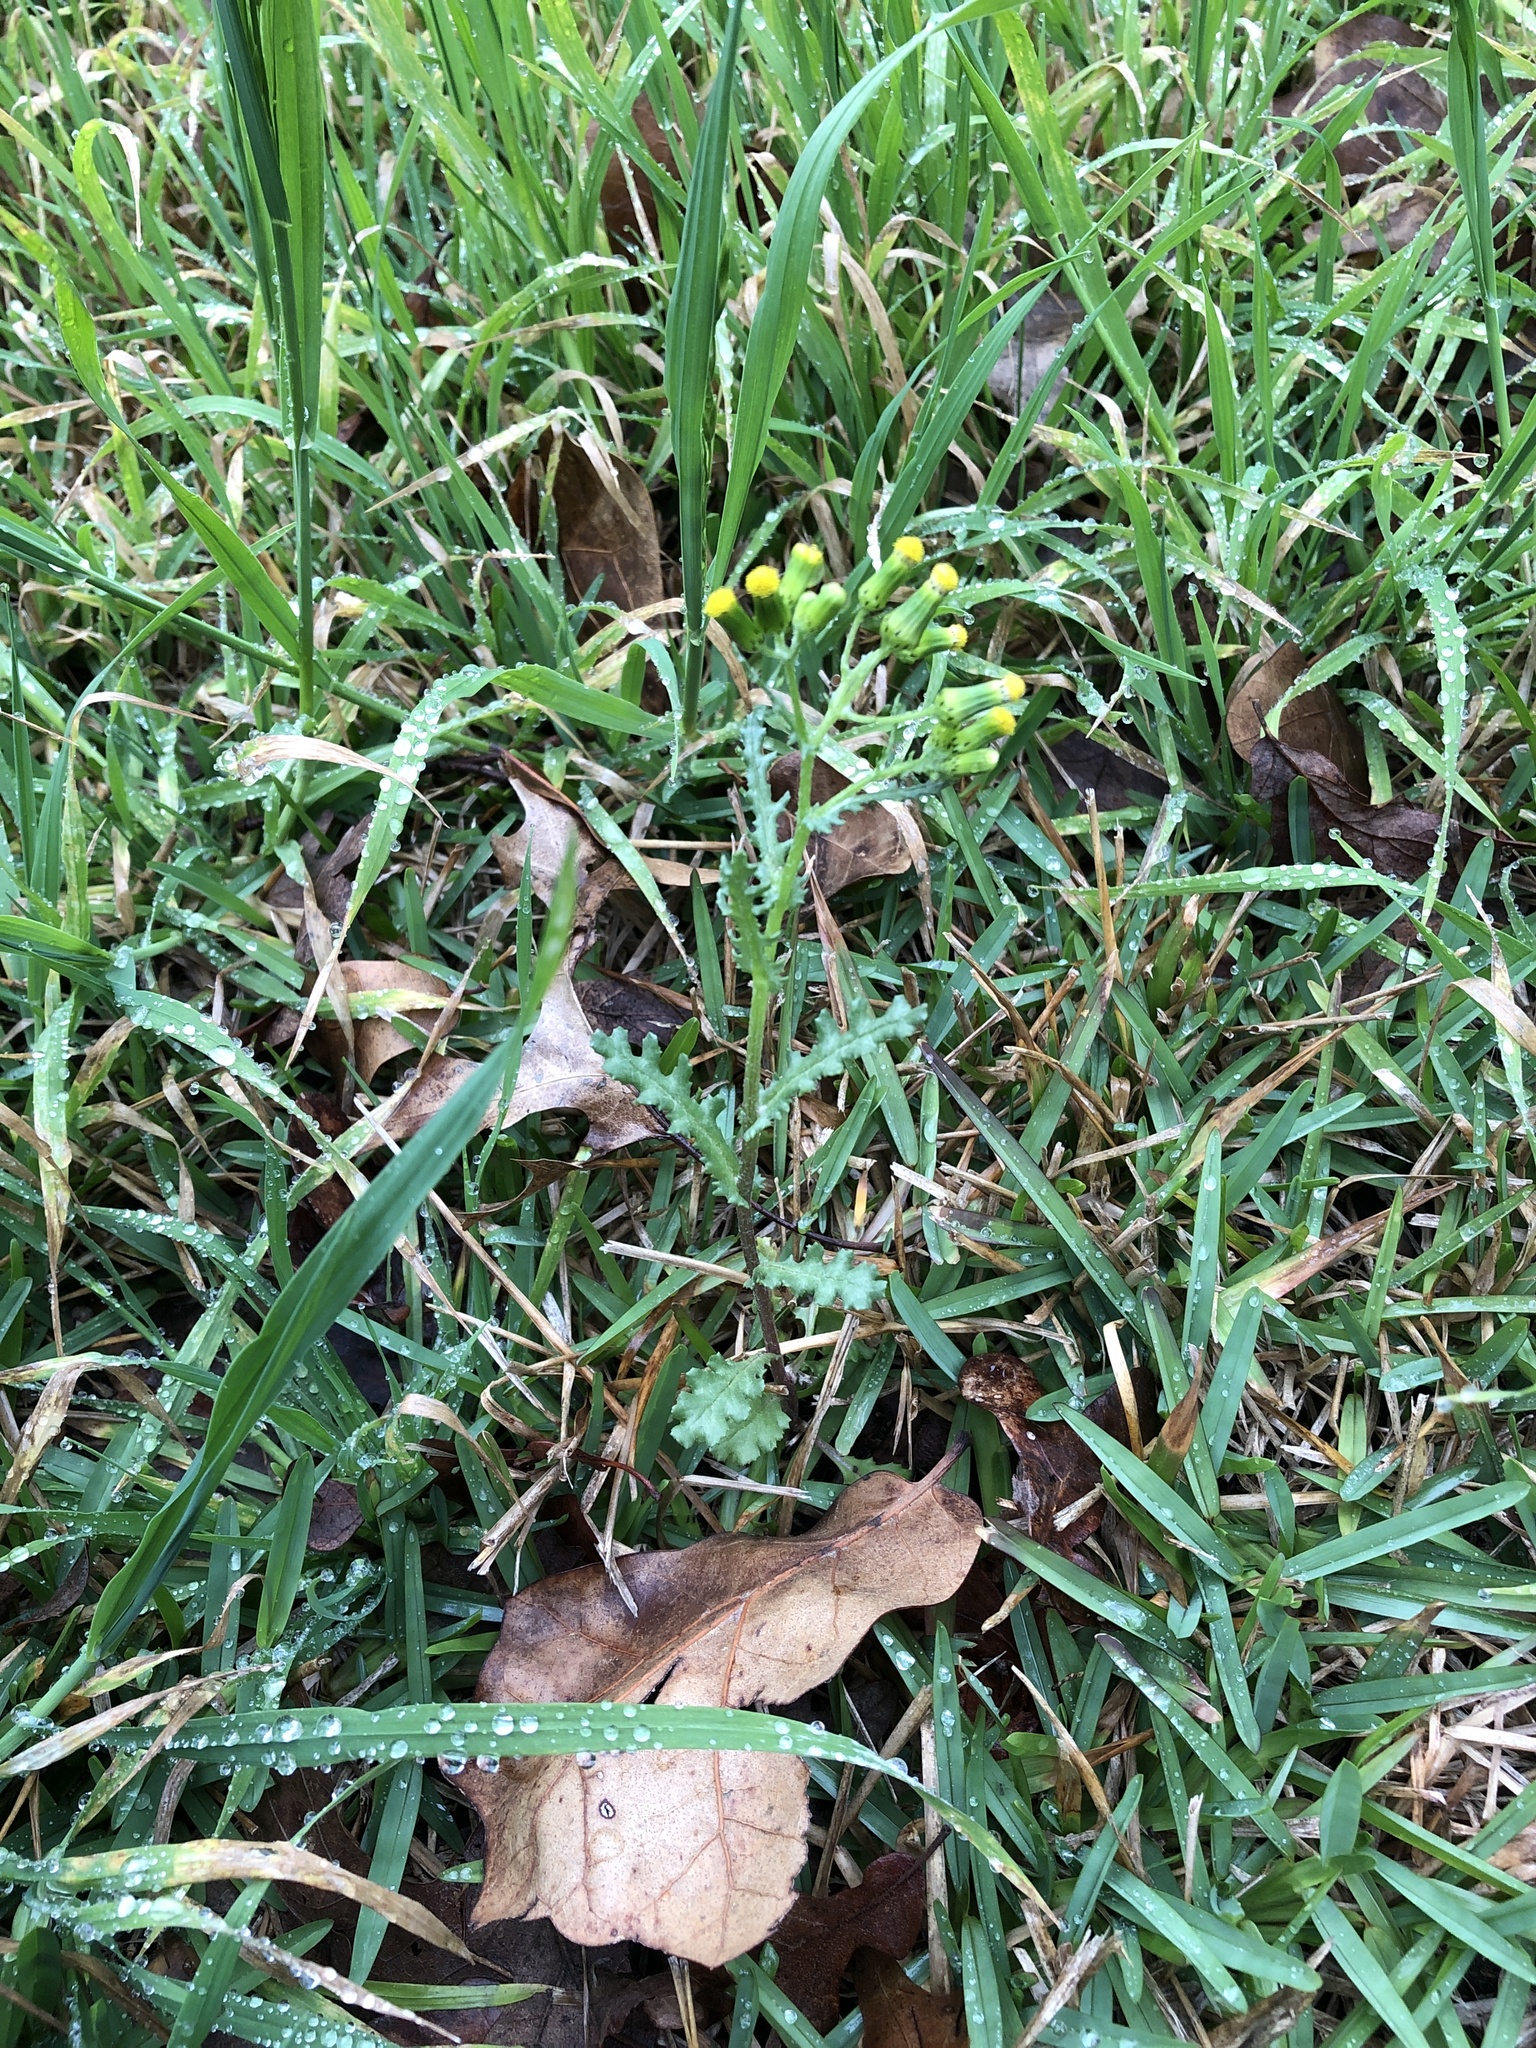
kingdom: Plantae
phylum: Tracheophyta
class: Magnoliopsida
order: Asterales
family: Asteraceae
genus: Senecio
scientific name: Senecio vulgaris
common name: Old-man-in-the-spring
